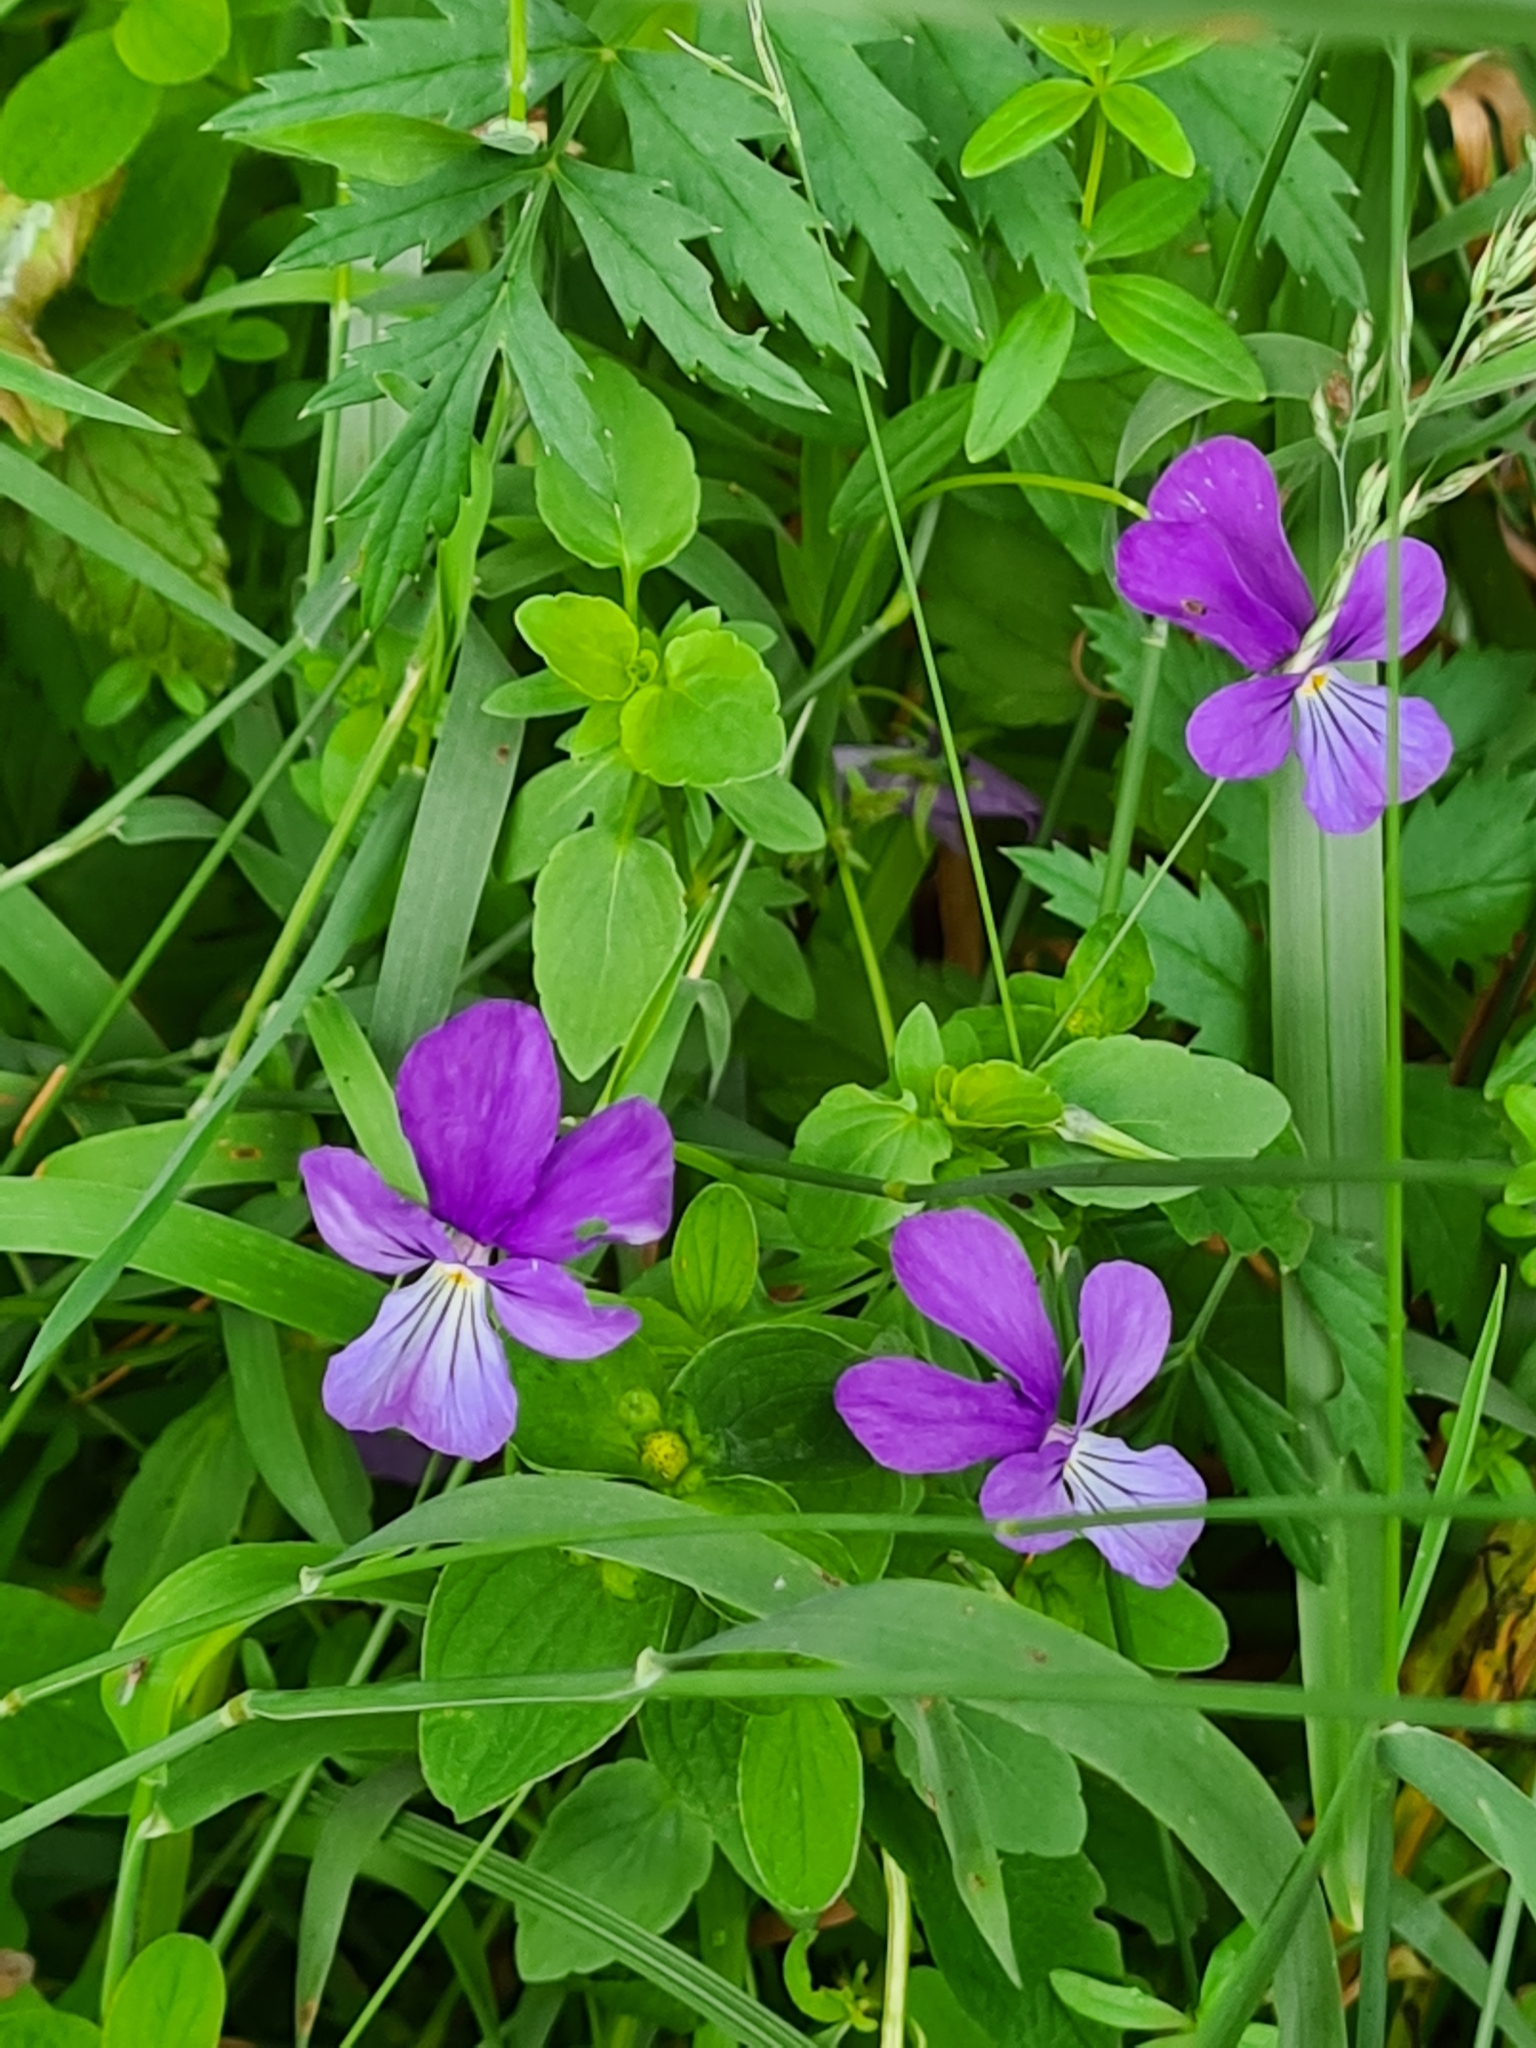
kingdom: Plantae
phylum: Tracheophyta
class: Magnoliopsida
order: Malpighiales
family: Violaceae
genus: Viola
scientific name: Viola dacica
